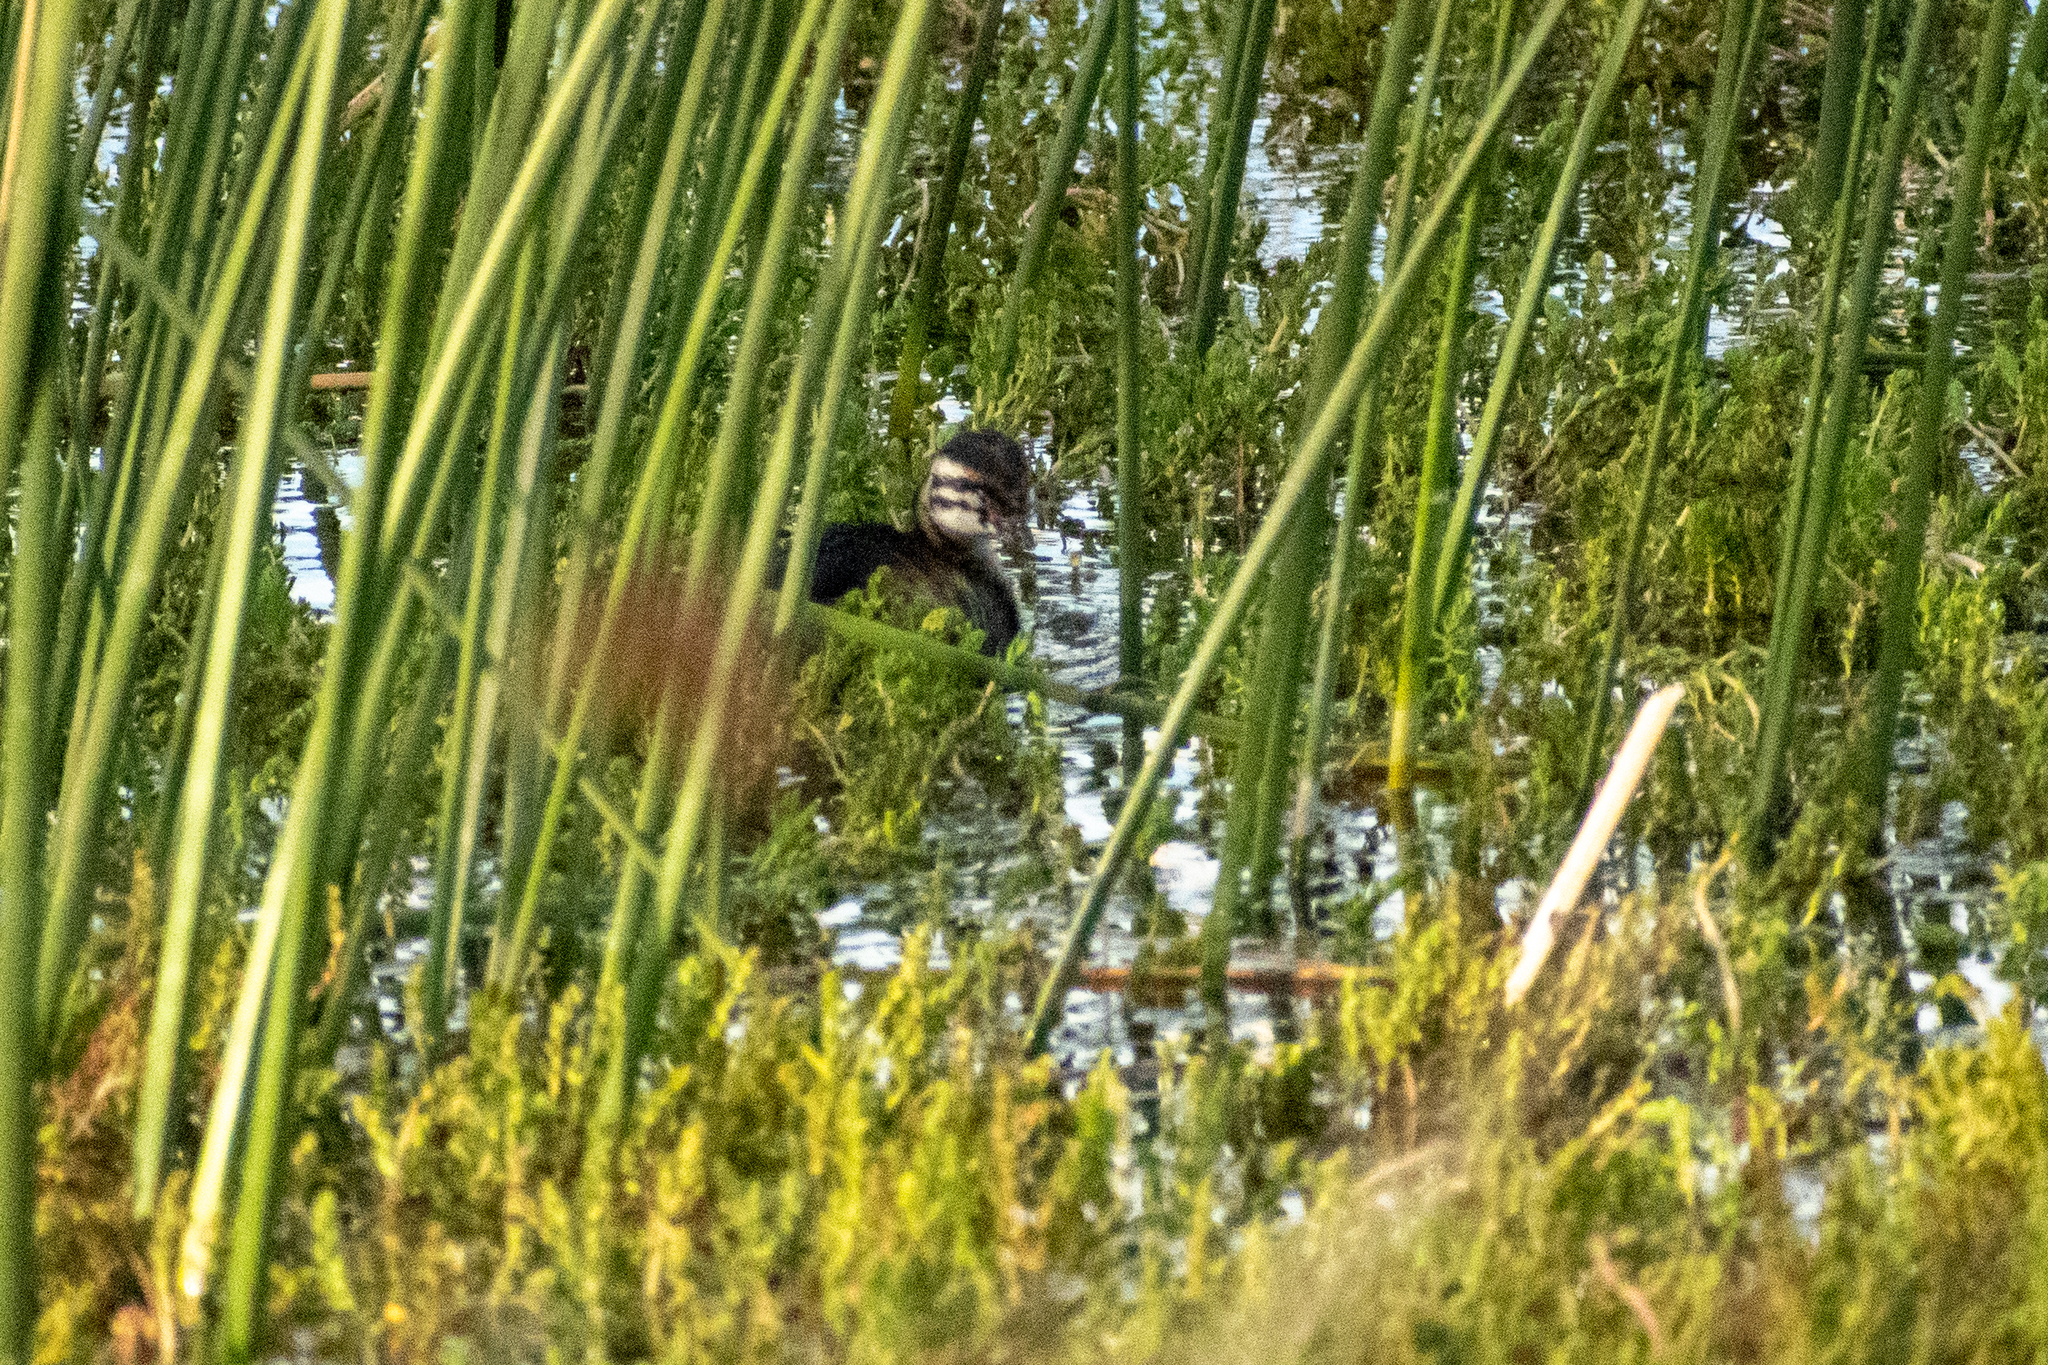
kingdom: Animalia
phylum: Chordata
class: Aves
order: Podicipediformes
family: Podicipedidae
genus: Rollandia
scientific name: Rollandia rolland
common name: White-tufted grebe
